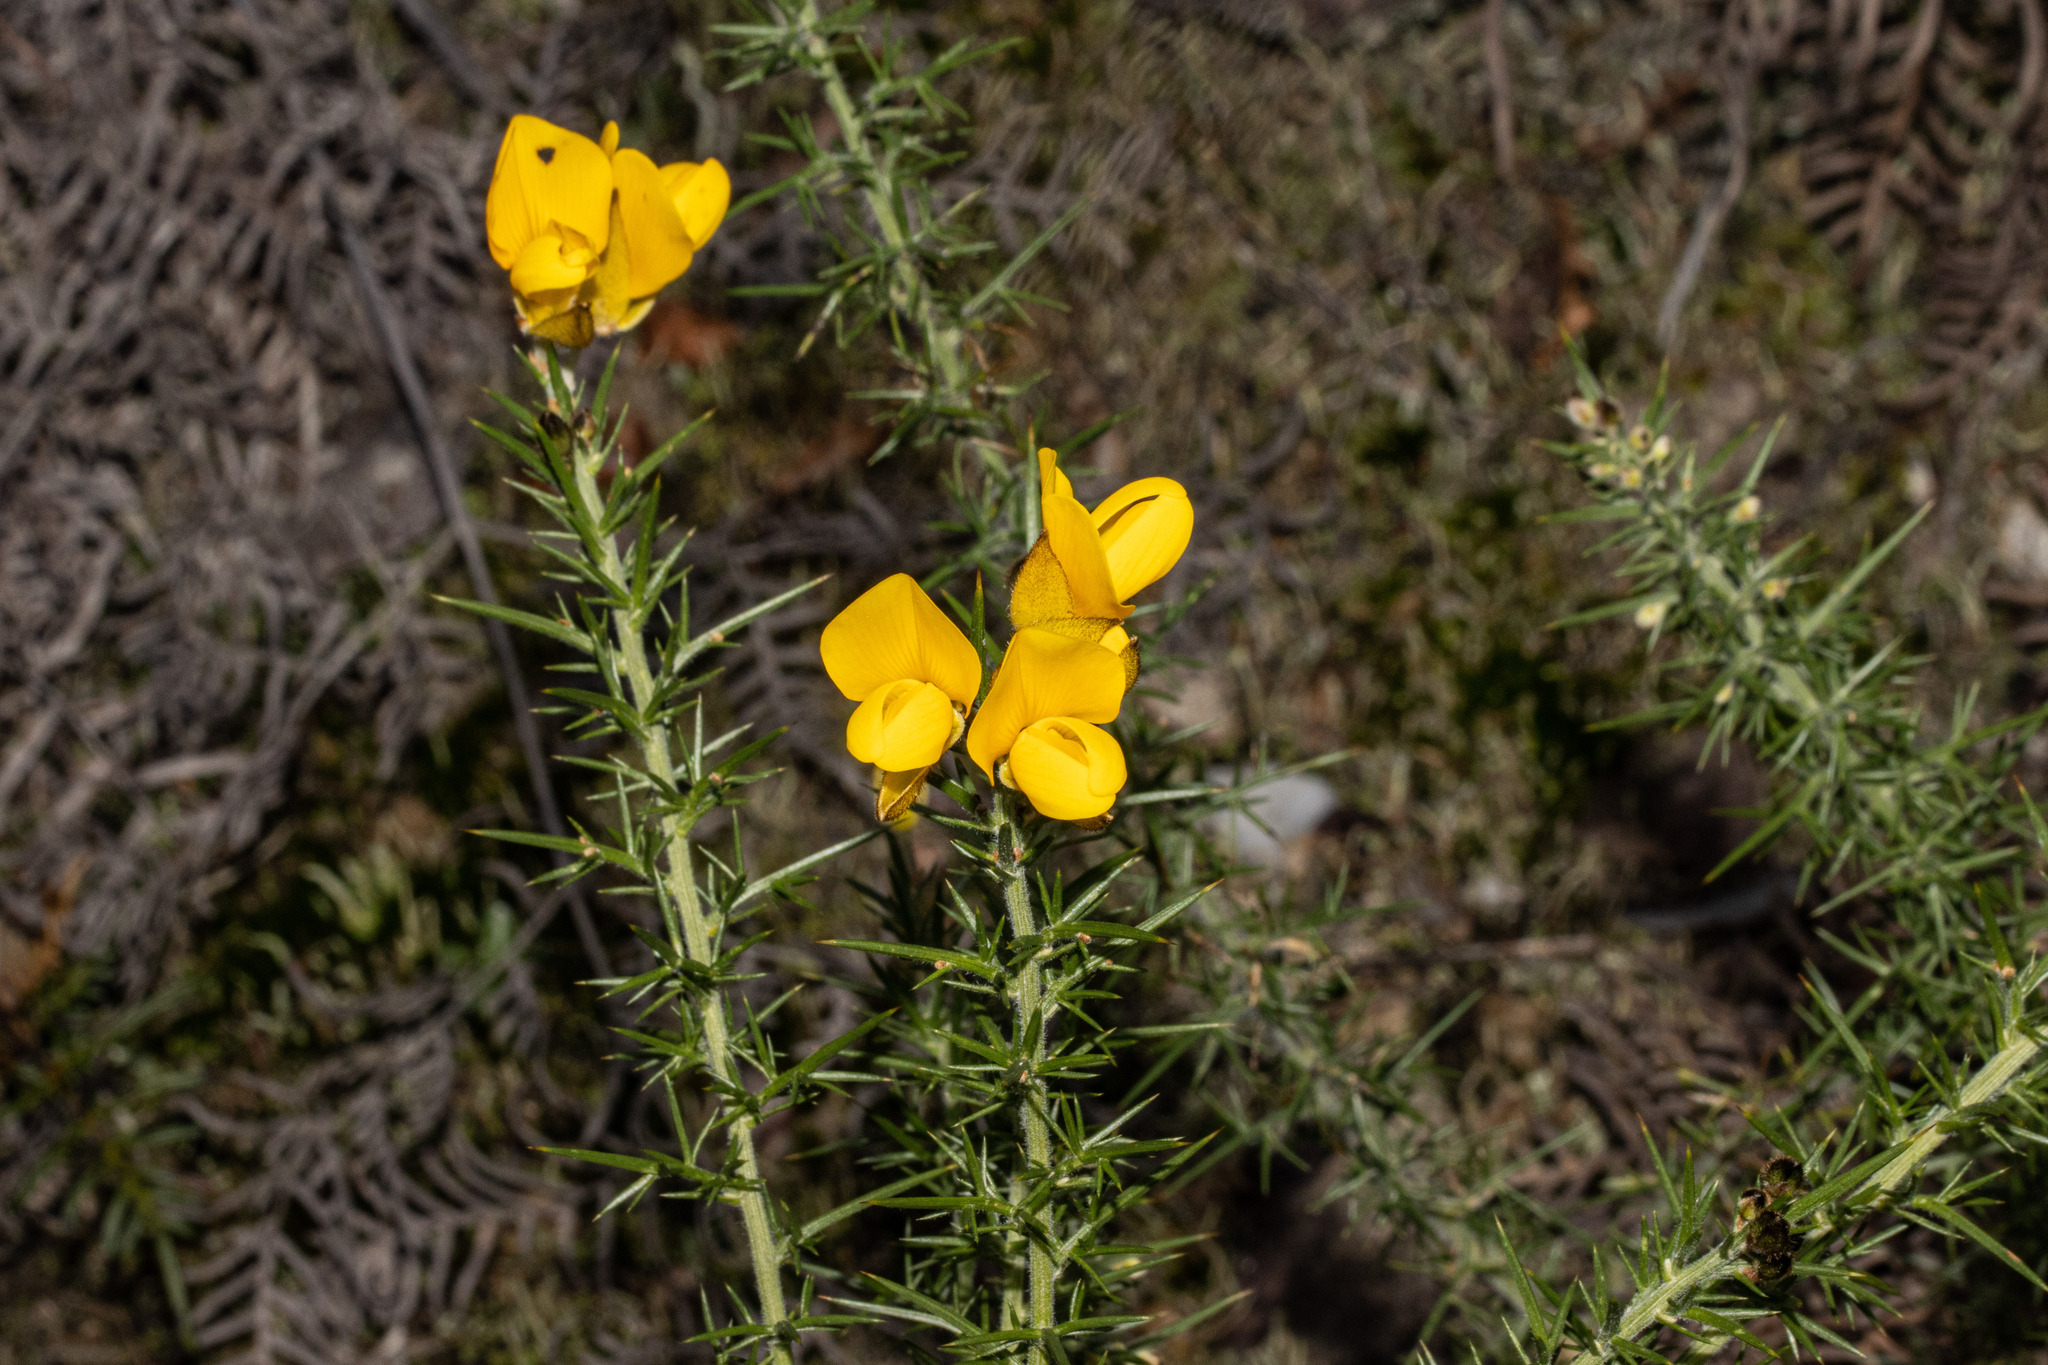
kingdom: Plantae
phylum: Tracheophyta
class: Magnoliopsida
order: Fabales
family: Fabaceae
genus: Ulex
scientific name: Ulex europaeus
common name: Common gorse
